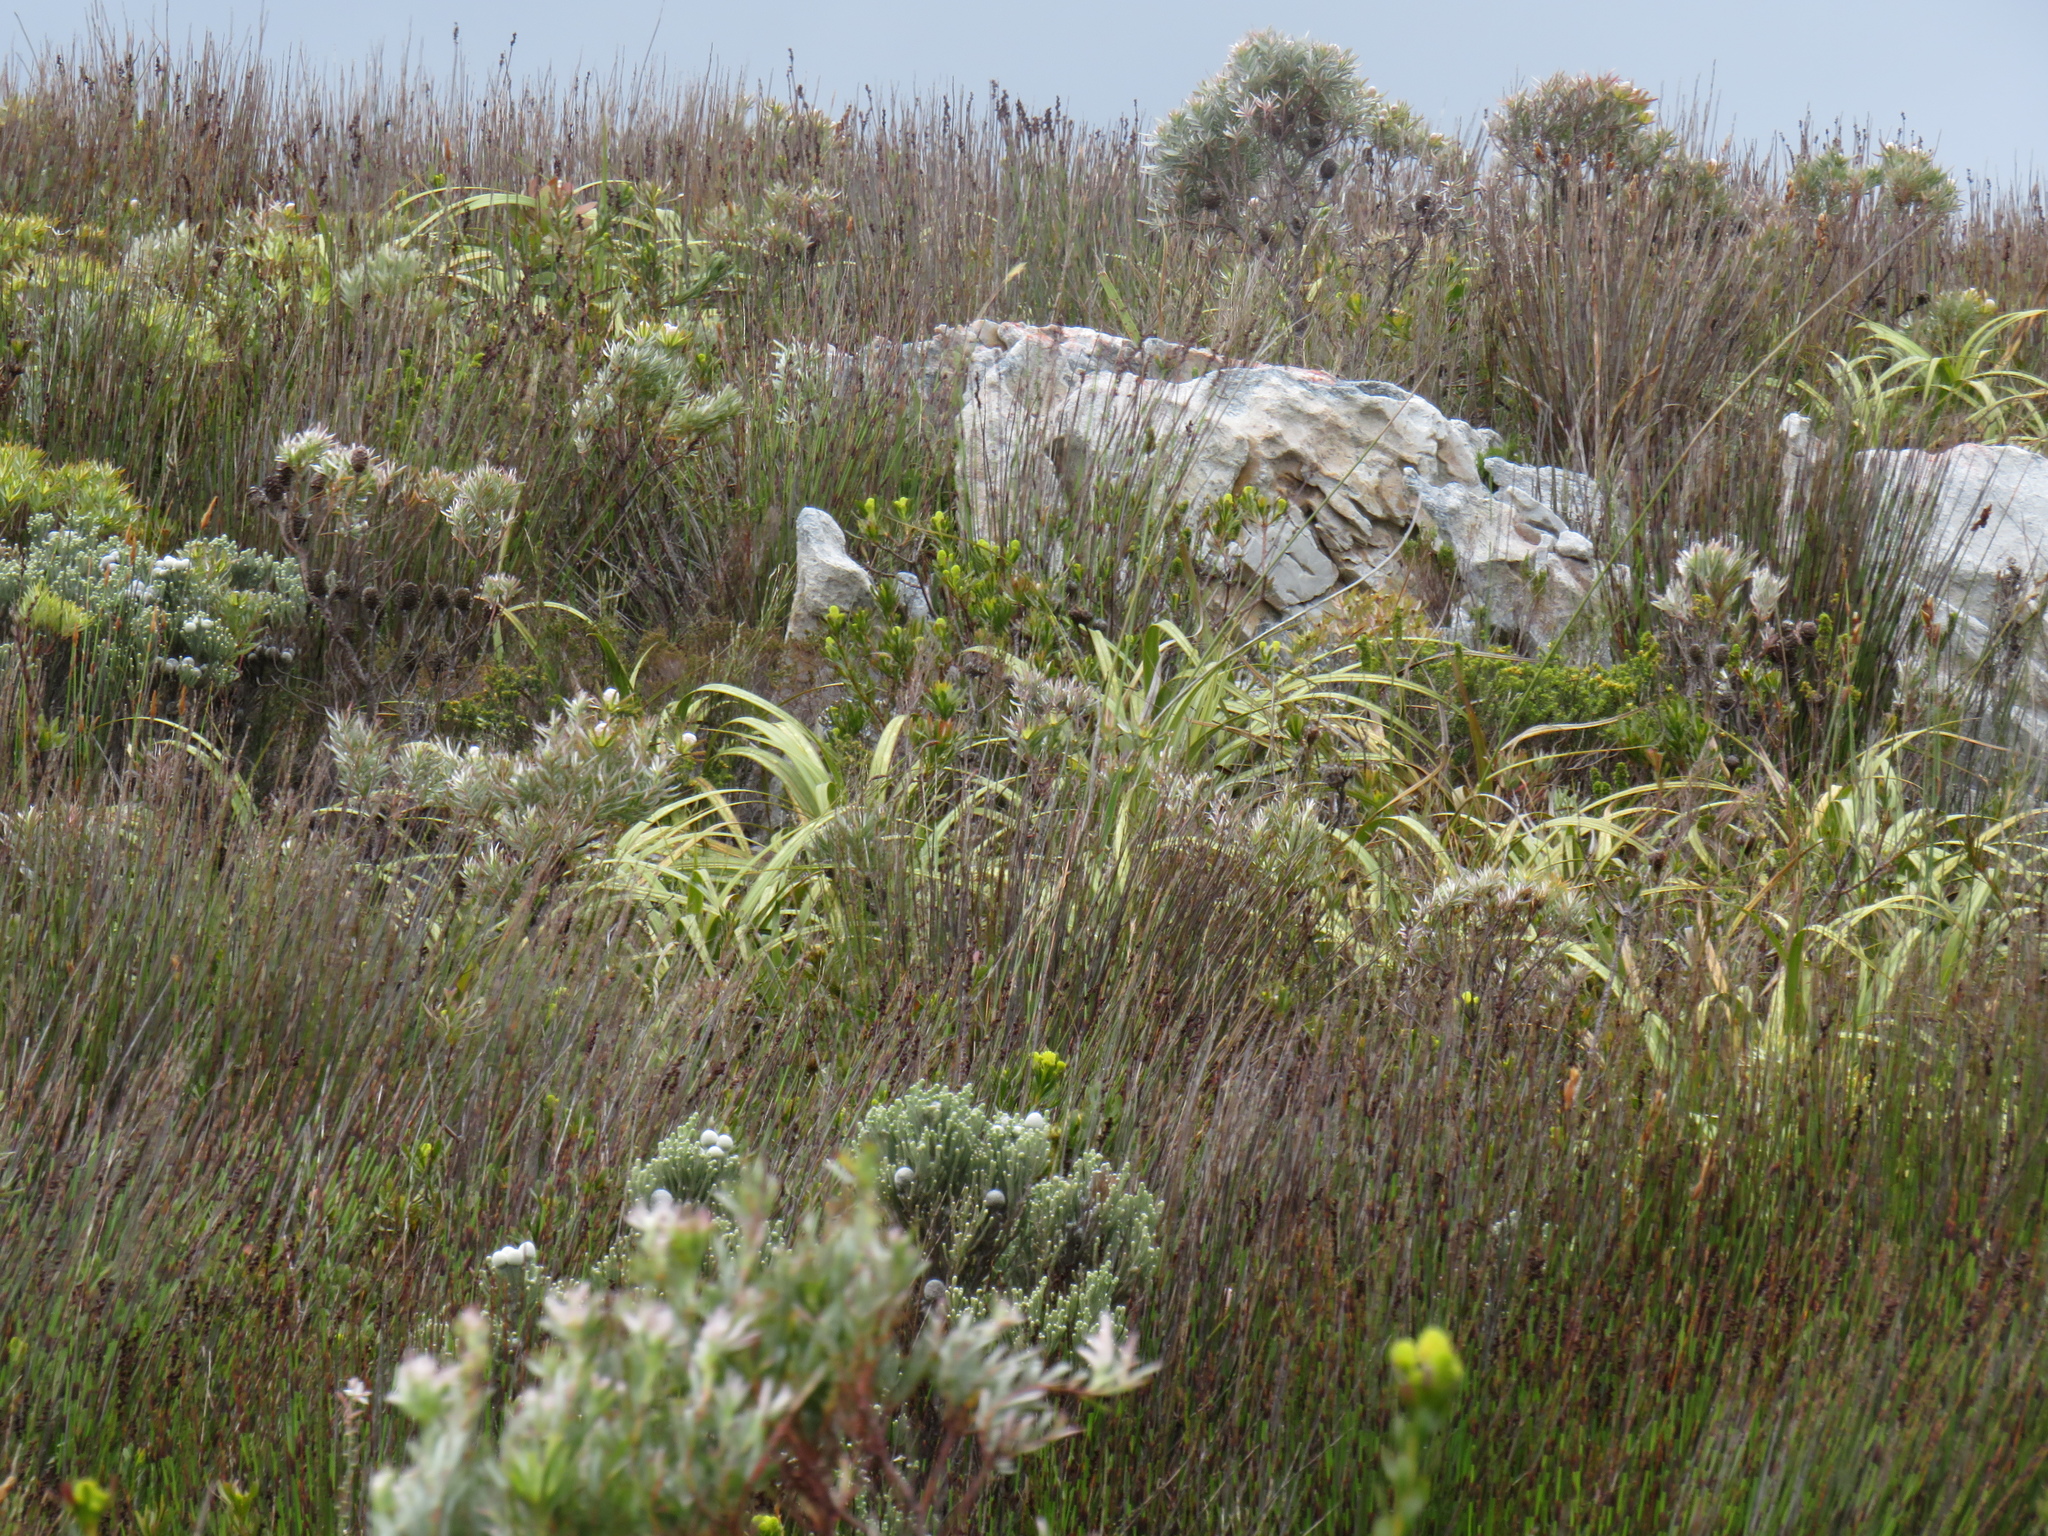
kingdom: Plantae
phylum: Tracheophyta
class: Magnoliopsida
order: Proteales
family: Proteaceae
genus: Leucadendron
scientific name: Leucadendron xanthoconus
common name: Sickle-leaf conebush
